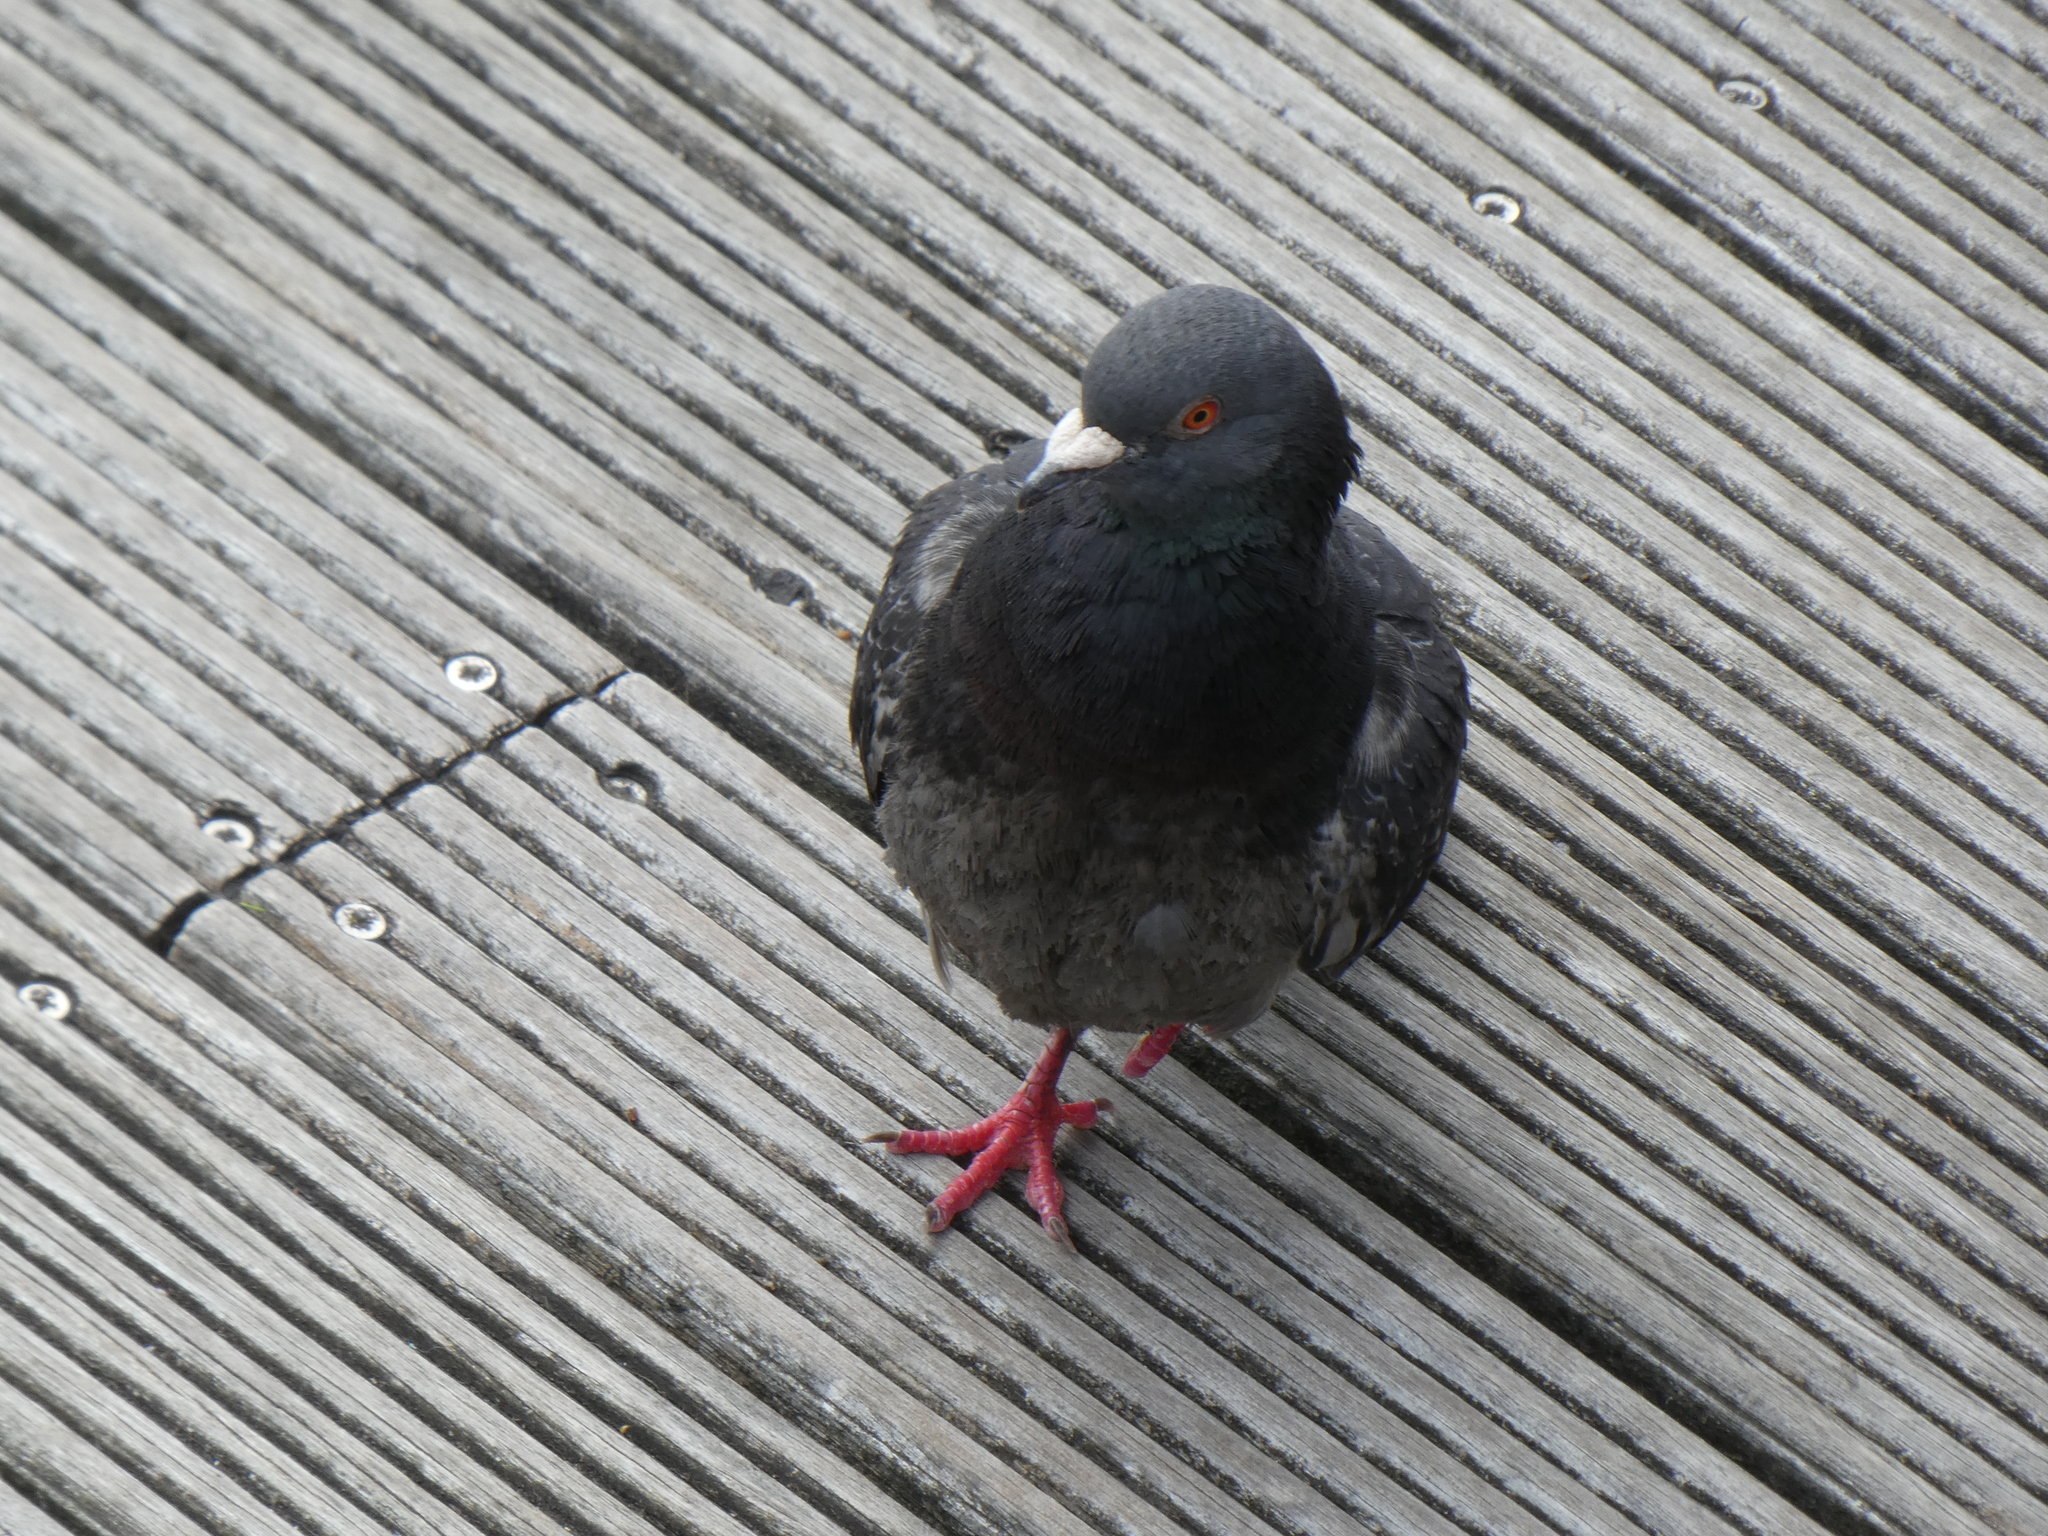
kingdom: Animalia
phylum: Chordata
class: Aves
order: Columbiformes
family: Columbidae
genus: Columba
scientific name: Columba livia
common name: Rock pigeon
